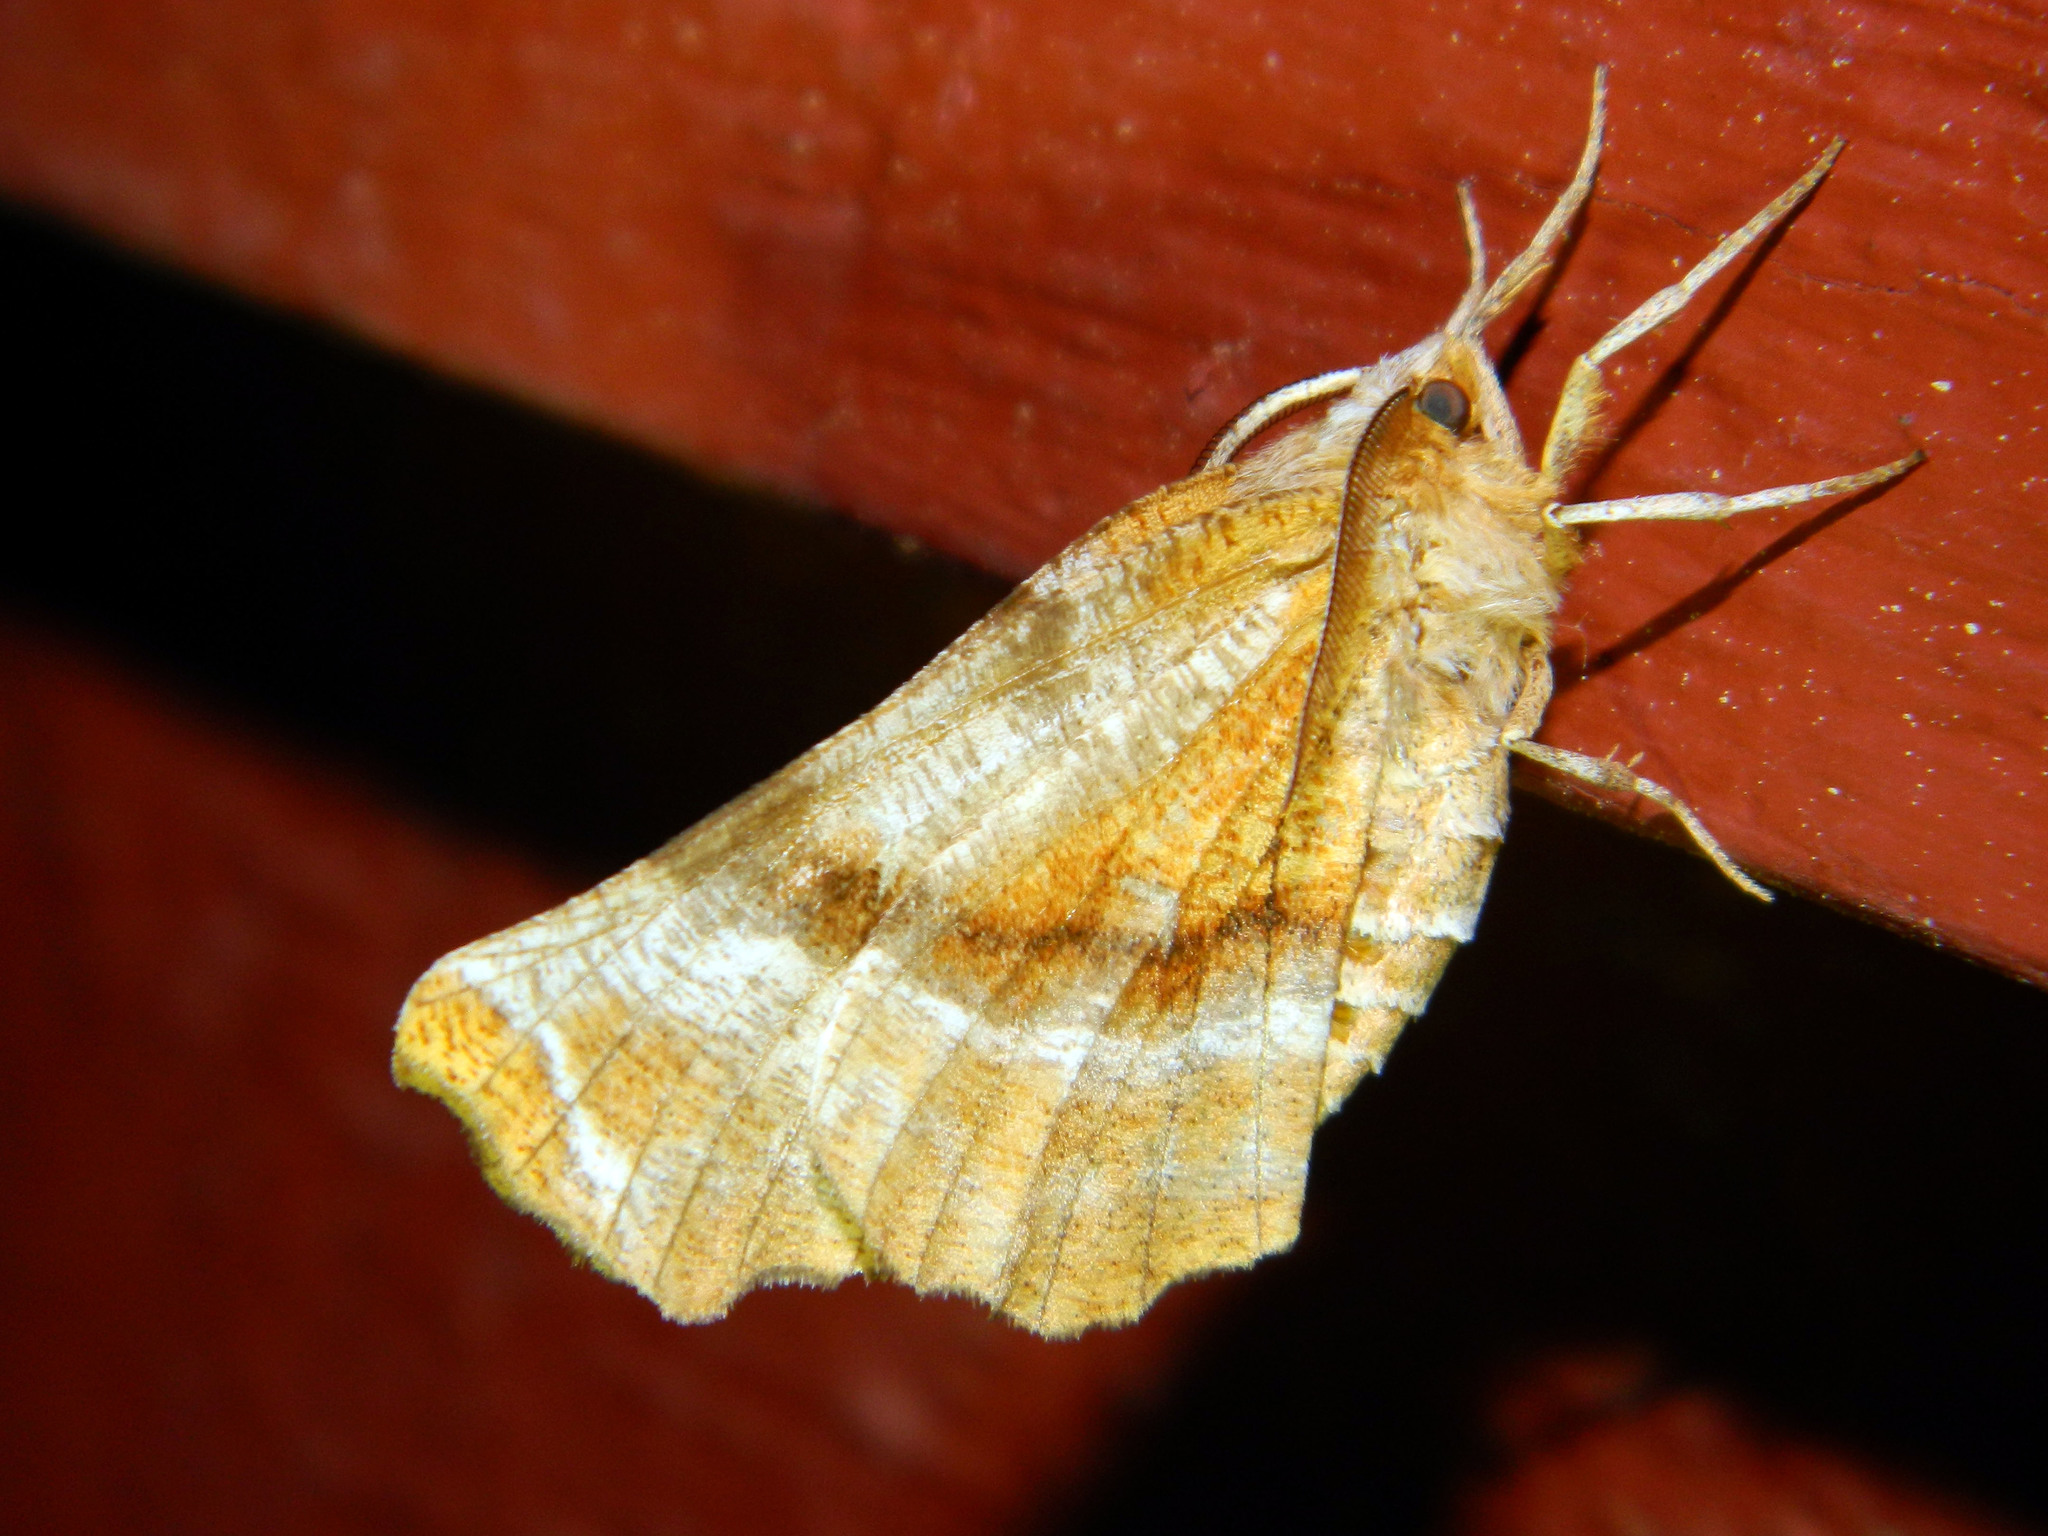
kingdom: Animalia
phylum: Arthropoda
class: Insecta
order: Lepidoptera
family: Geometridae
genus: Selenia
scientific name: Selenia kentaria
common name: Kent's geometer
